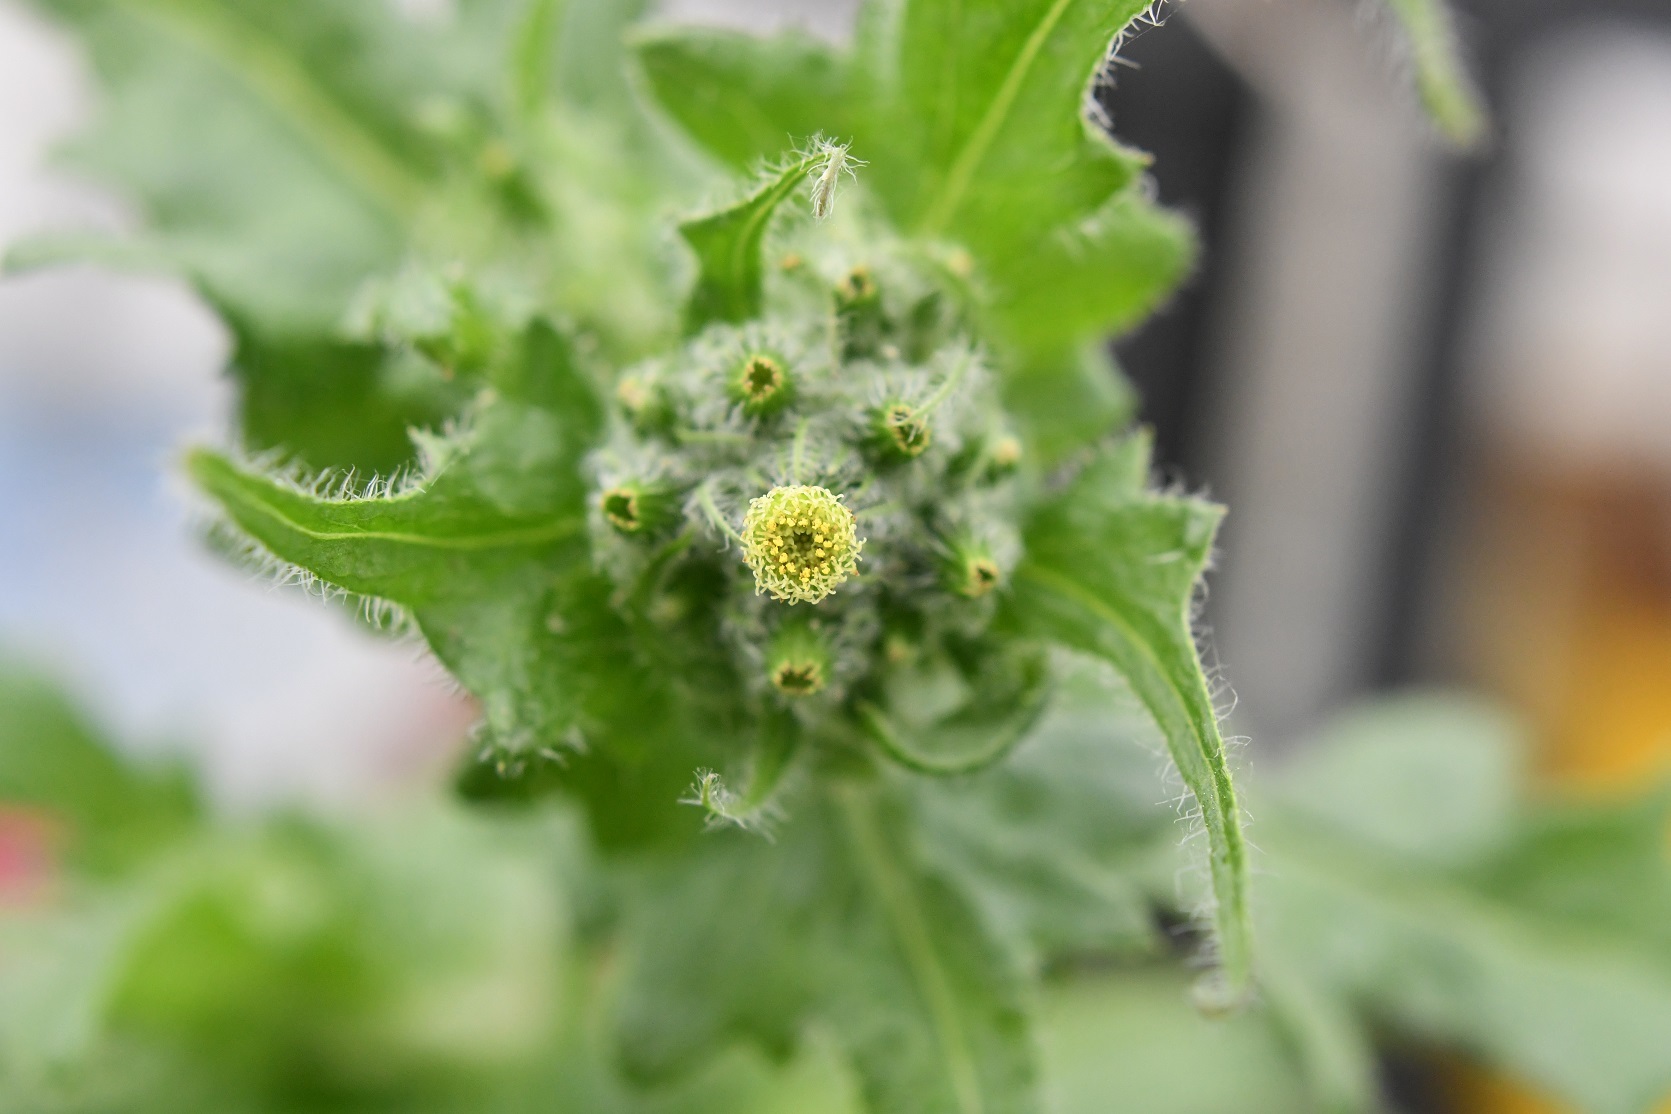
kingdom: Plantae
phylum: Tracheophyta
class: Magnoliopsida
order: Asterales
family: Asteraceae
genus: Erechtites
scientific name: Erechtites hieraciifolius
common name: American burnweed
